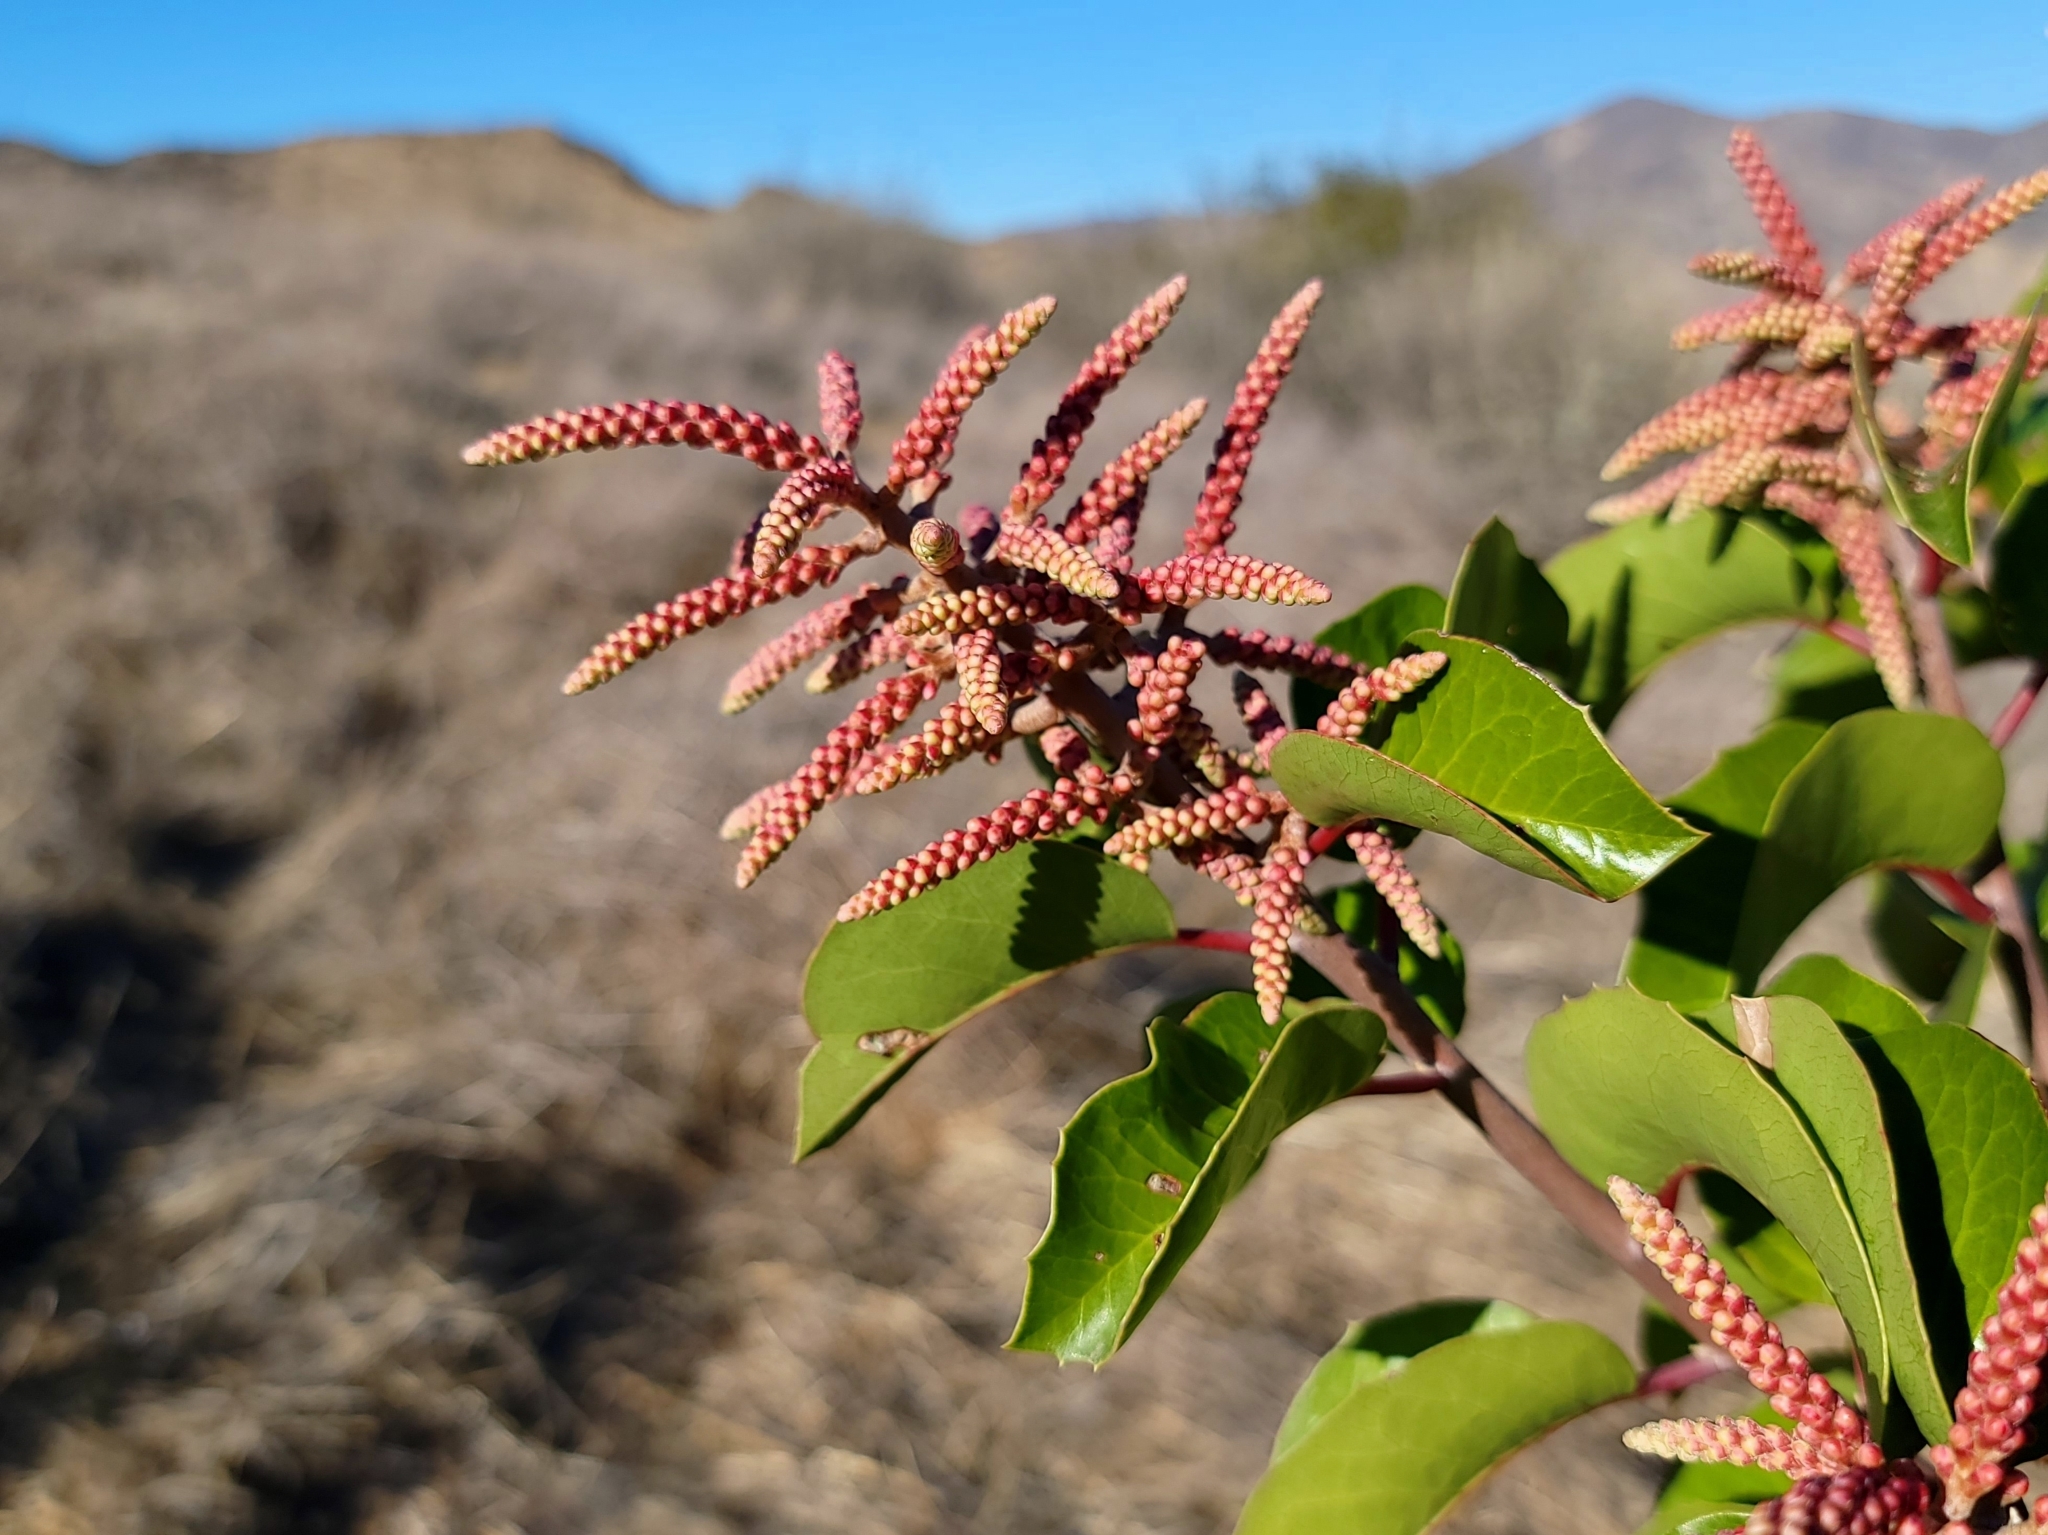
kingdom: Plantae
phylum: Tracheophyta
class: Magnoliopsida
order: Sapindales
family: Anacardiaceae
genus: Rhus
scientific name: Rhus ovata
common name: Sugar sumac
